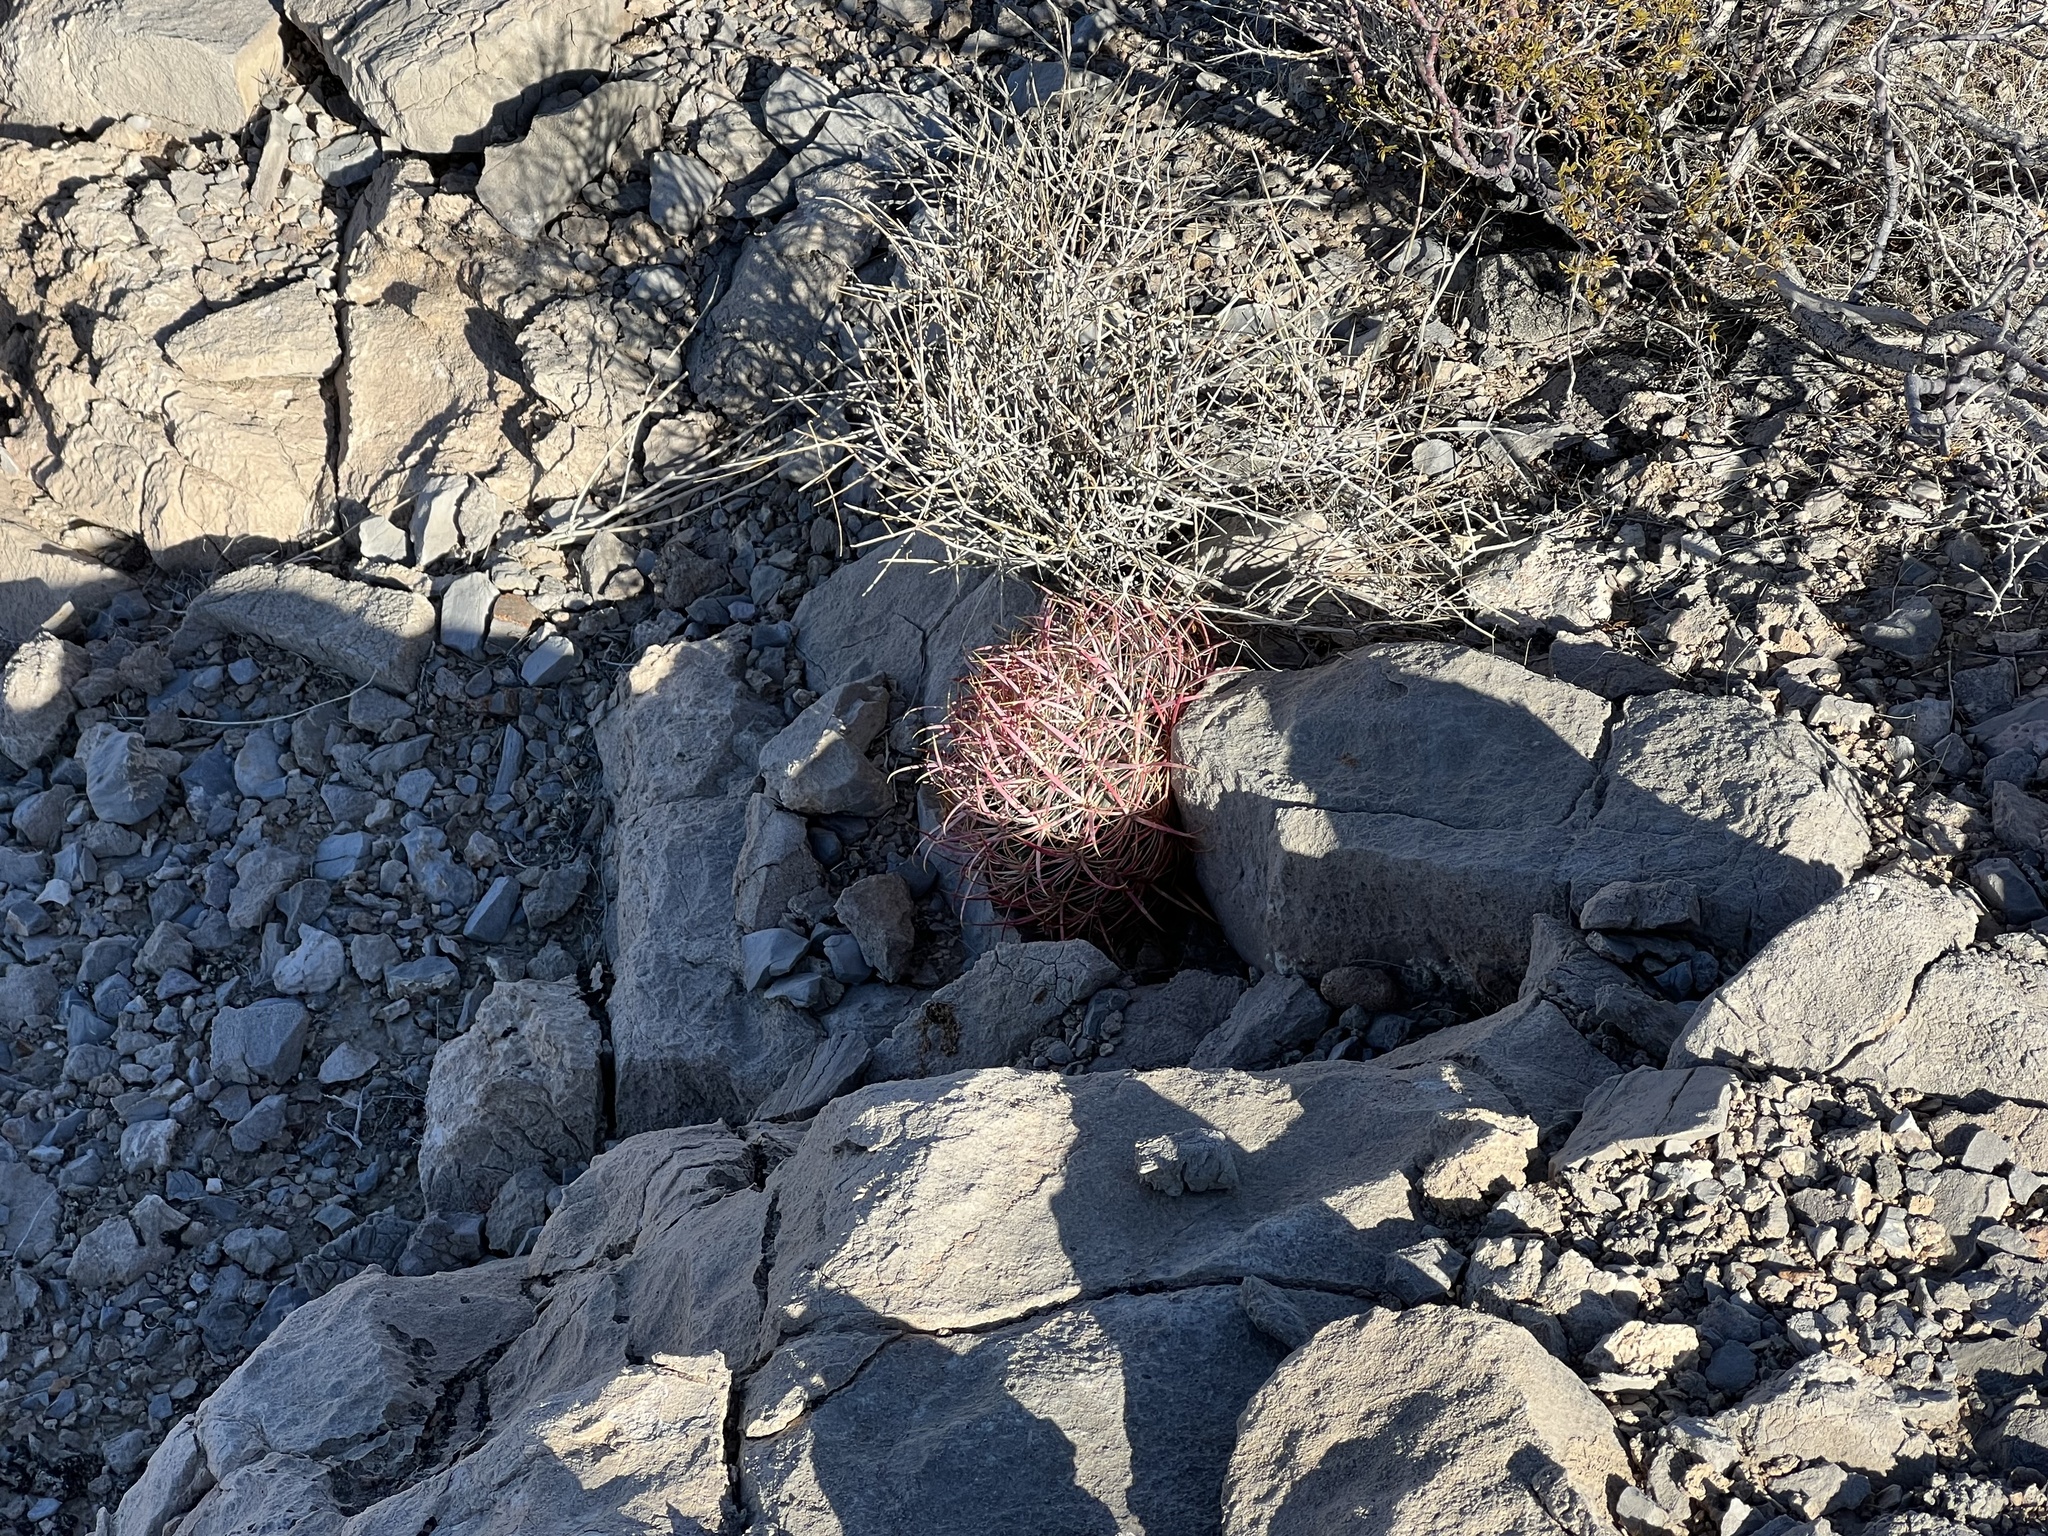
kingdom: Plantae
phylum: Tracheophyta
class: Magnoliopsida
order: Caryophyllales
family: Cactaceae
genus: Ferocactus
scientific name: Ferocactus cylindraceus
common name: California barrel cactus
